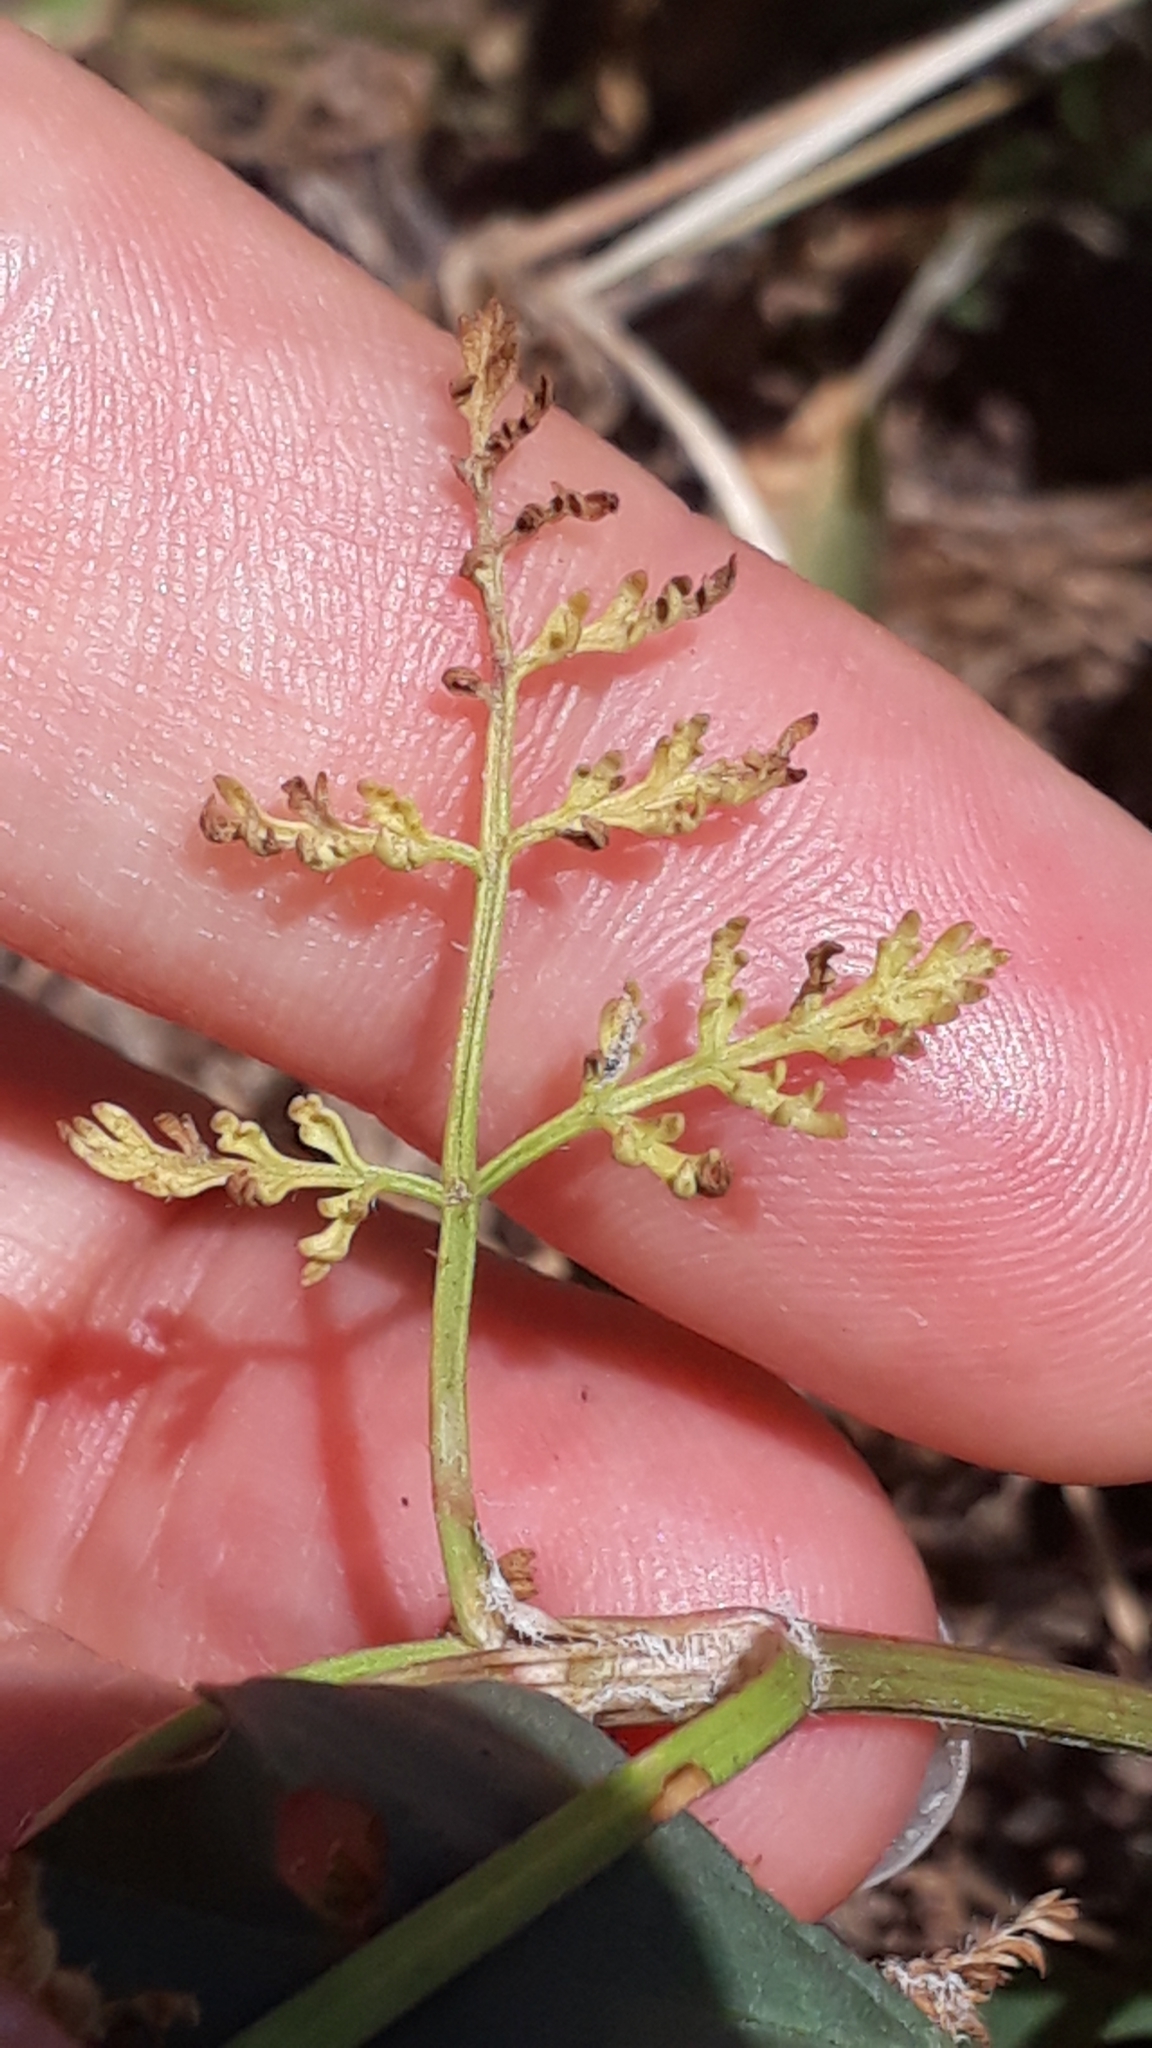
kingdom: Plantae
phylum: Tracheophyta
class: Magnoliopsida
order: Apiales
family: Apiaceae
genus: Caucalis
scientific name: Caucalis platycarpos
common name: Small bur-parsley
